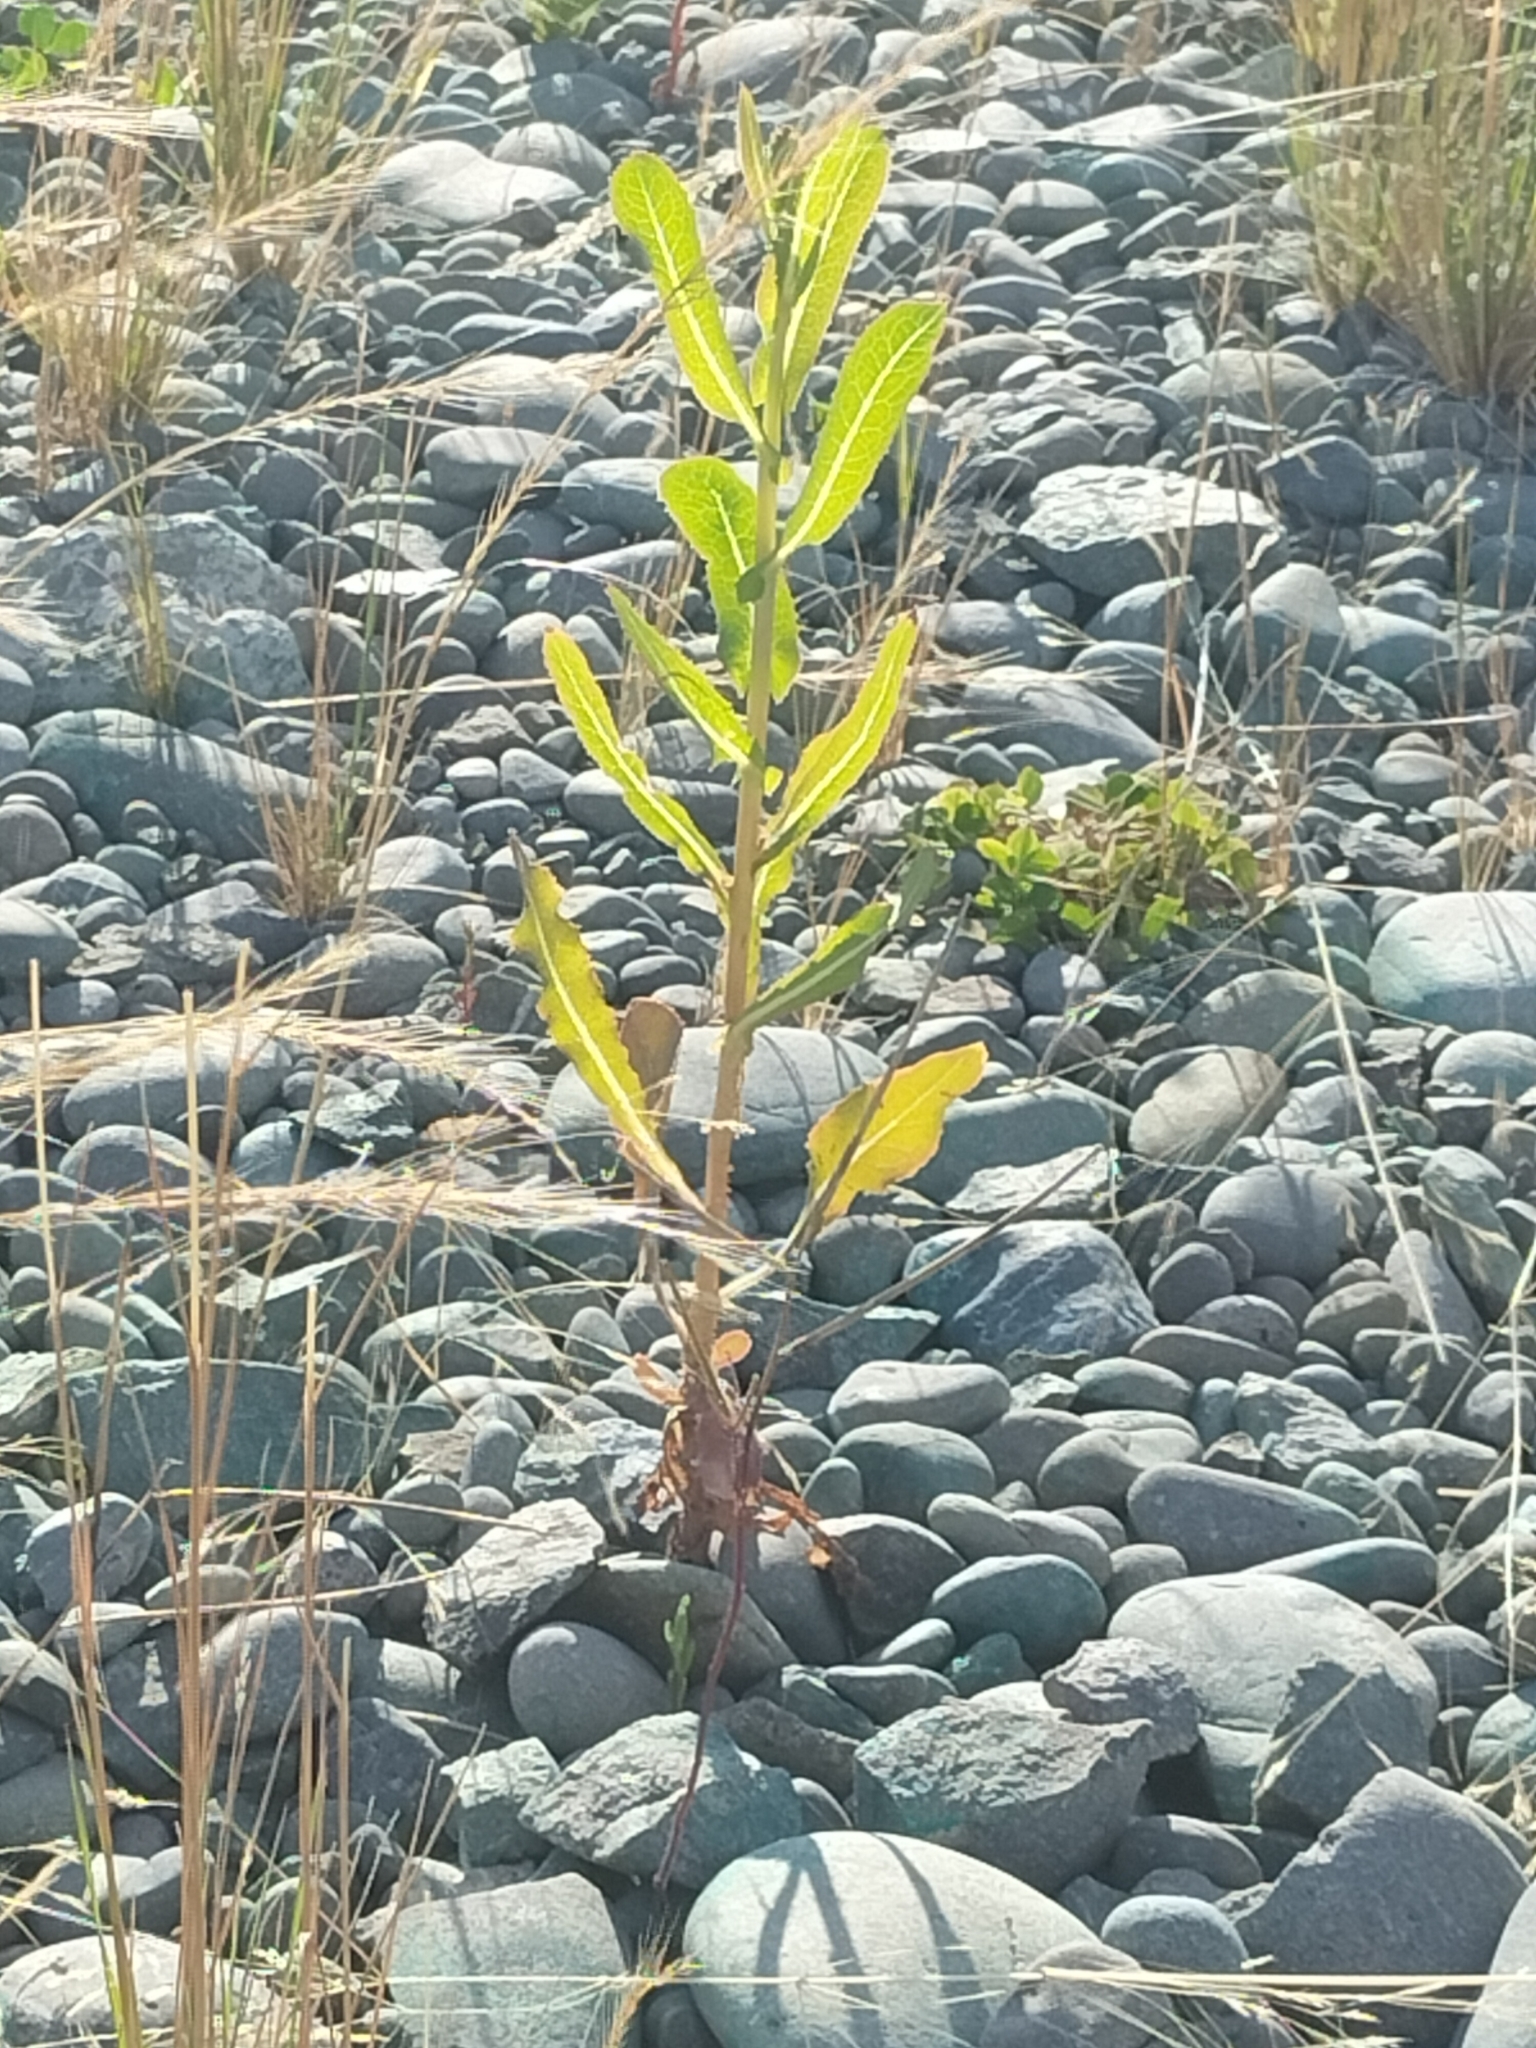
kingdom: Plantae
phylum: Tracheophyta
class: Magnoliopsida
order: Asterales
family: Asteraceae
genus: Lactuca
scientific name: Lactuca serriola
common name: Prickly lettuce
